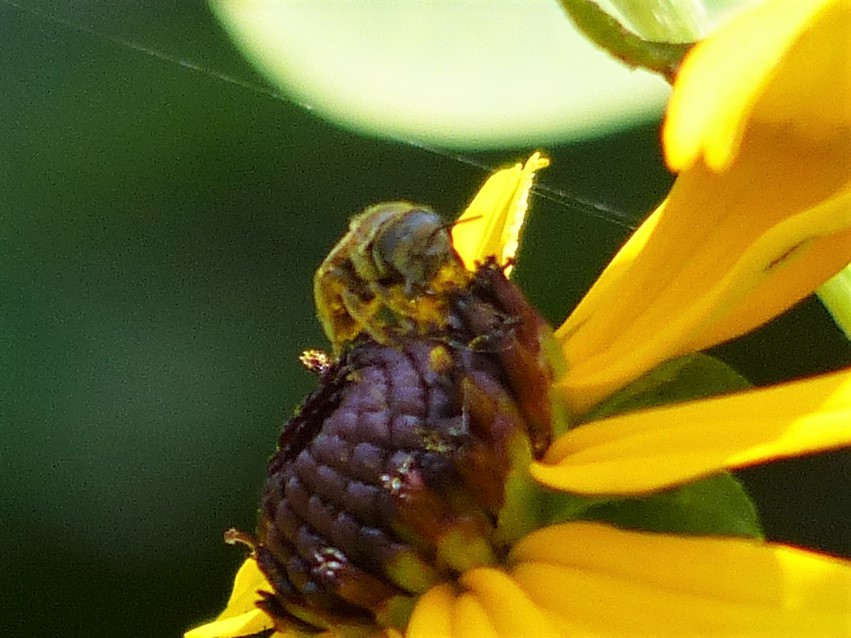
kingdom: Animalia
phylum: Arthropoda
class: Insecta
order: Hymenoptera
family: Halictidae
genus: Halictus
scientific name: Halictus ligatus
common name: Ligated furrow bee
